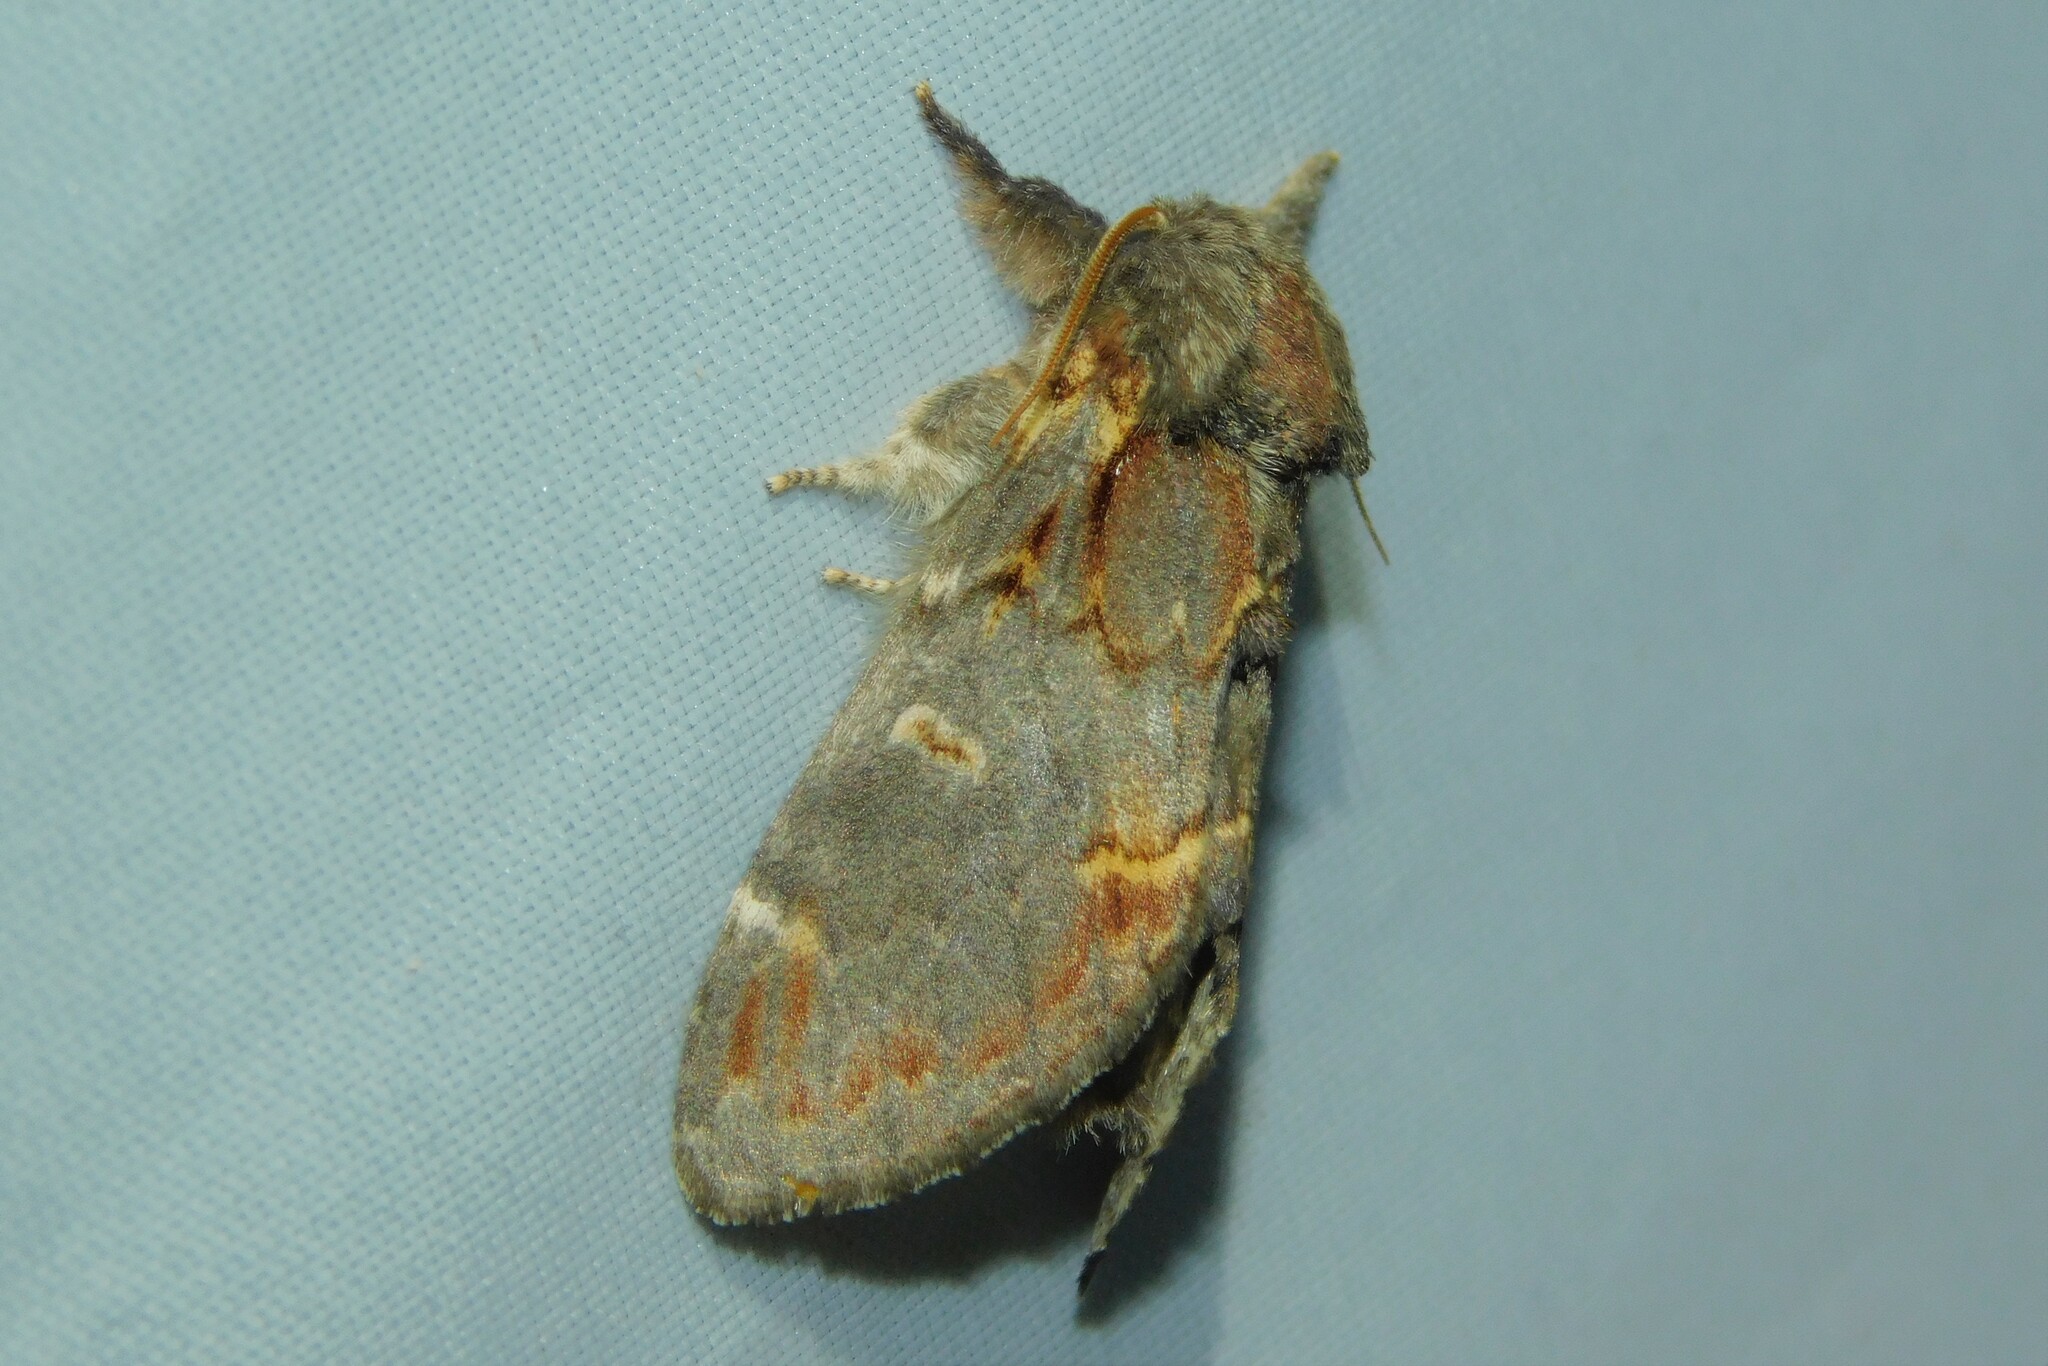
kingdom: Animalia
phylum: Arthropoda
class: Insecta
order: Lepidoptera
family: Notodontidae
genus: Notodonta
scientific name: Notodonta dromedarius
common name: Iron prominent
